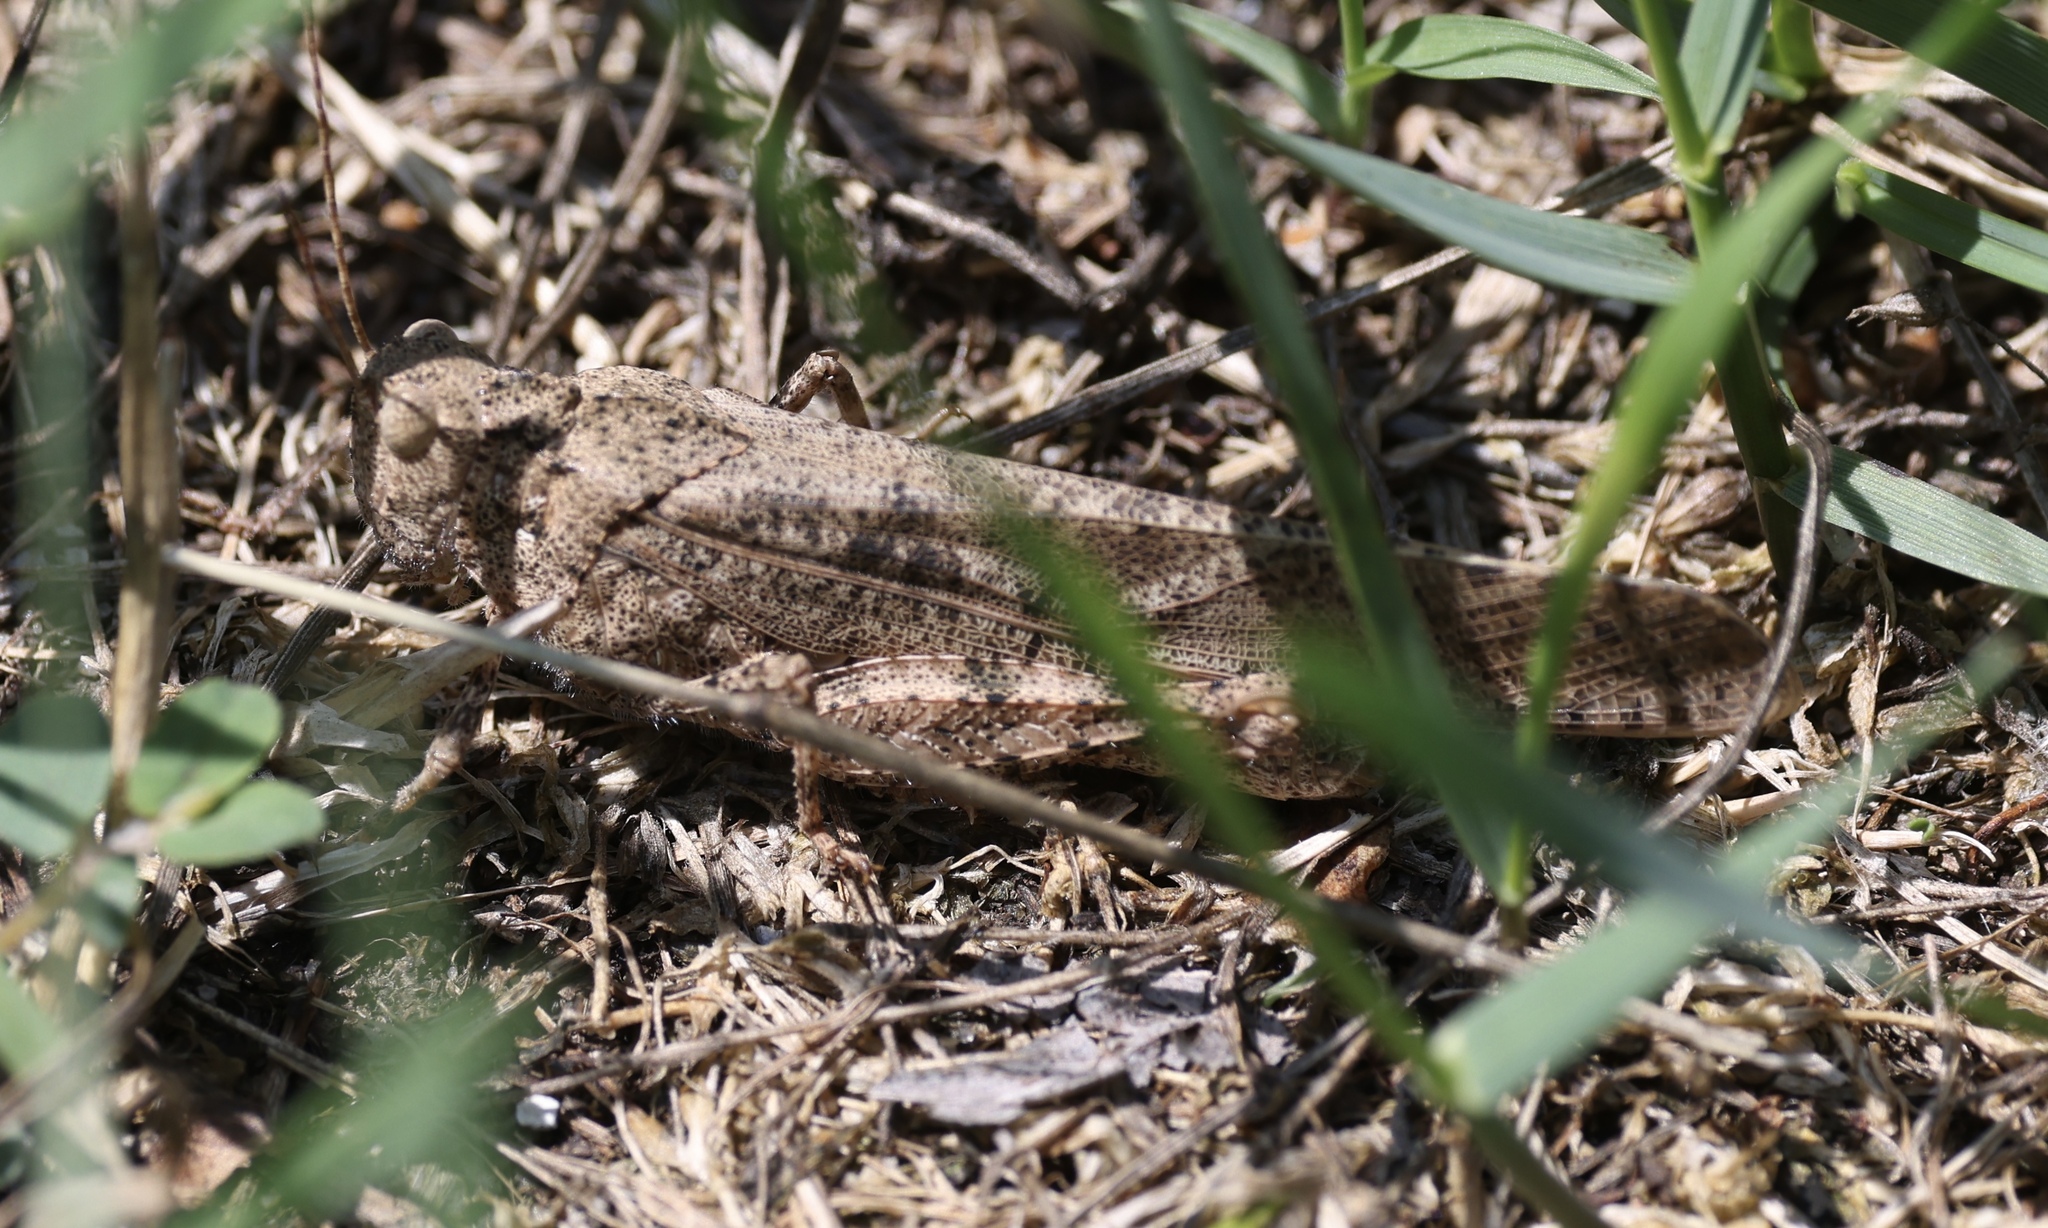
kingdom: Animalia
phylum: Arthropoda
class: Insecta
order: Orthoptera
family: Acrididae
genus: Dissosteira
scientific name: Dissosteira carolina
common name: Carolina grasshopper
